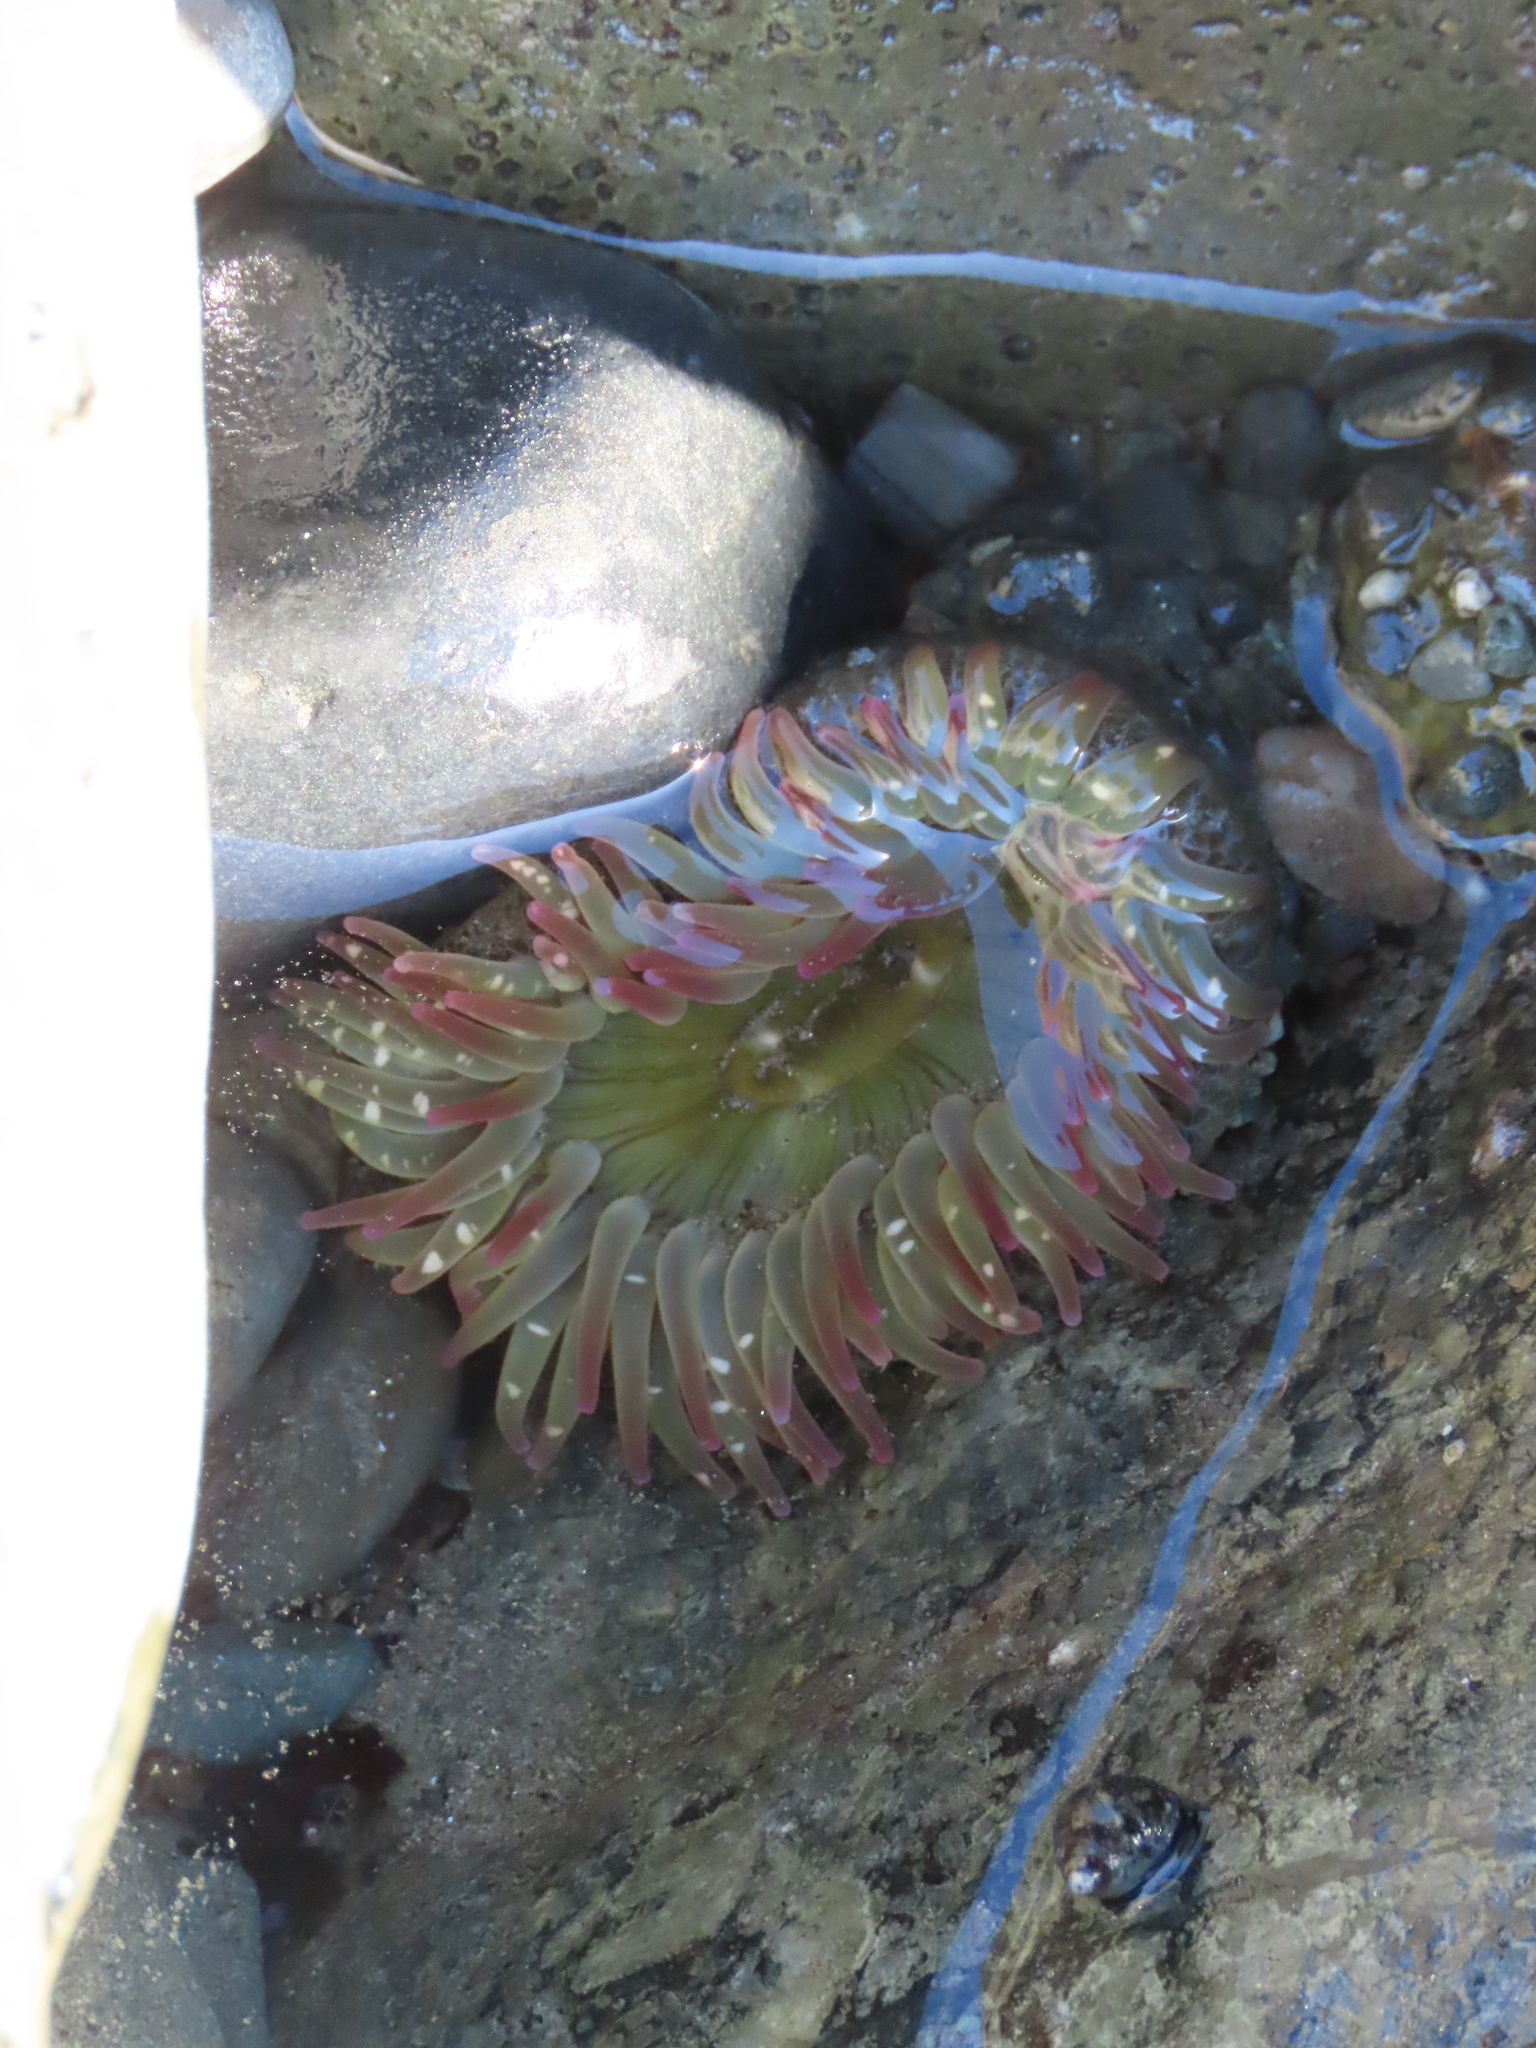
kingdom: Animalia
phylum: Cnidaria
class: Anthozoa
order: Actiniaria
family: Actiniidae
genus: Anthopleura
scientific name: Anthopleura elegantissima
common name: Clonal anemone
